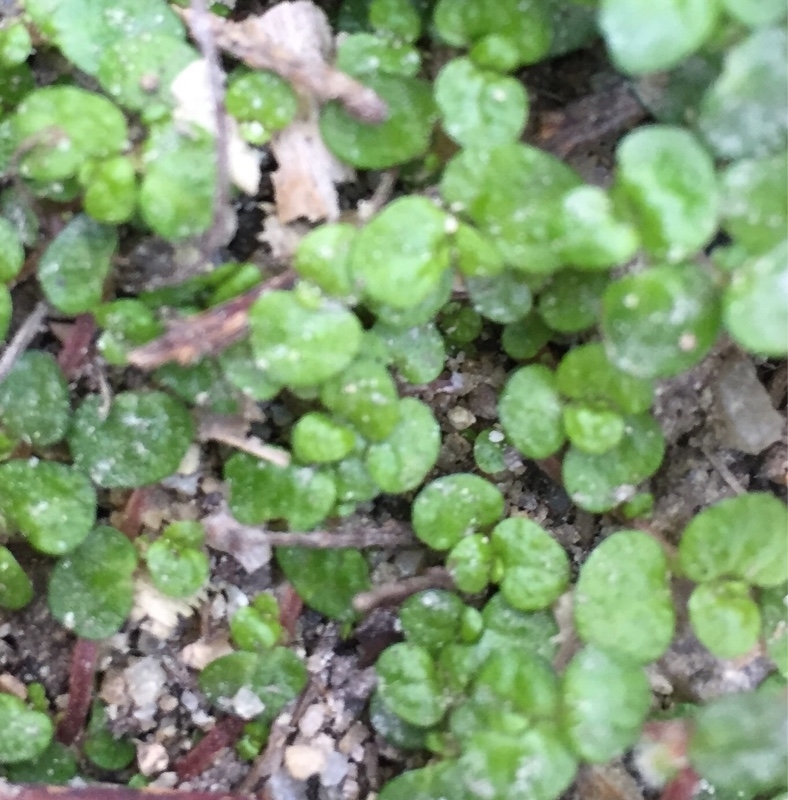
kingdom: Plantae
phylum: Tracheophyta
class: Magnoliopsida
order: Rosales
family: Urticaceae
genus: Soleirolia
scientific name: Soleirolia soleirolii
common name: Mind-your-own-business
